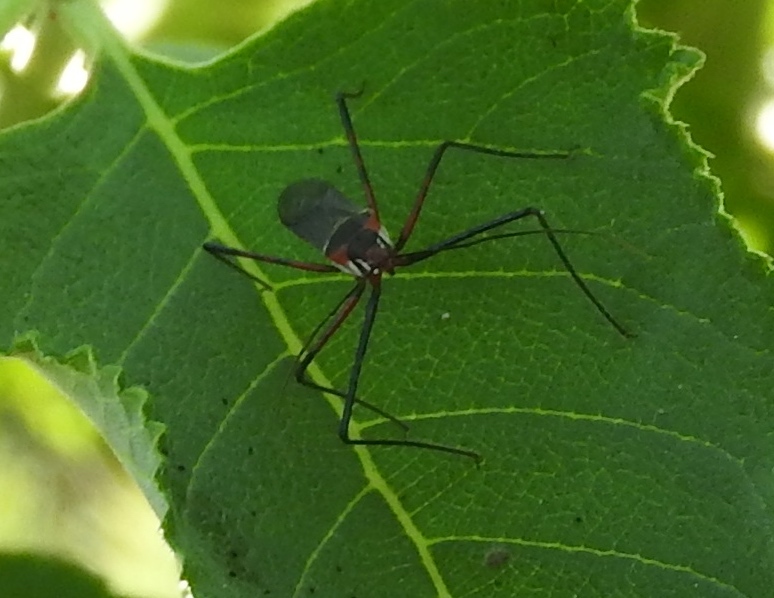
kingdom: Animalia
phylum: Arthropoda
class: Insecta
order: Hemiptera
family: Reduviidae
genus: Zelus
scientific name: Zelus grassans
